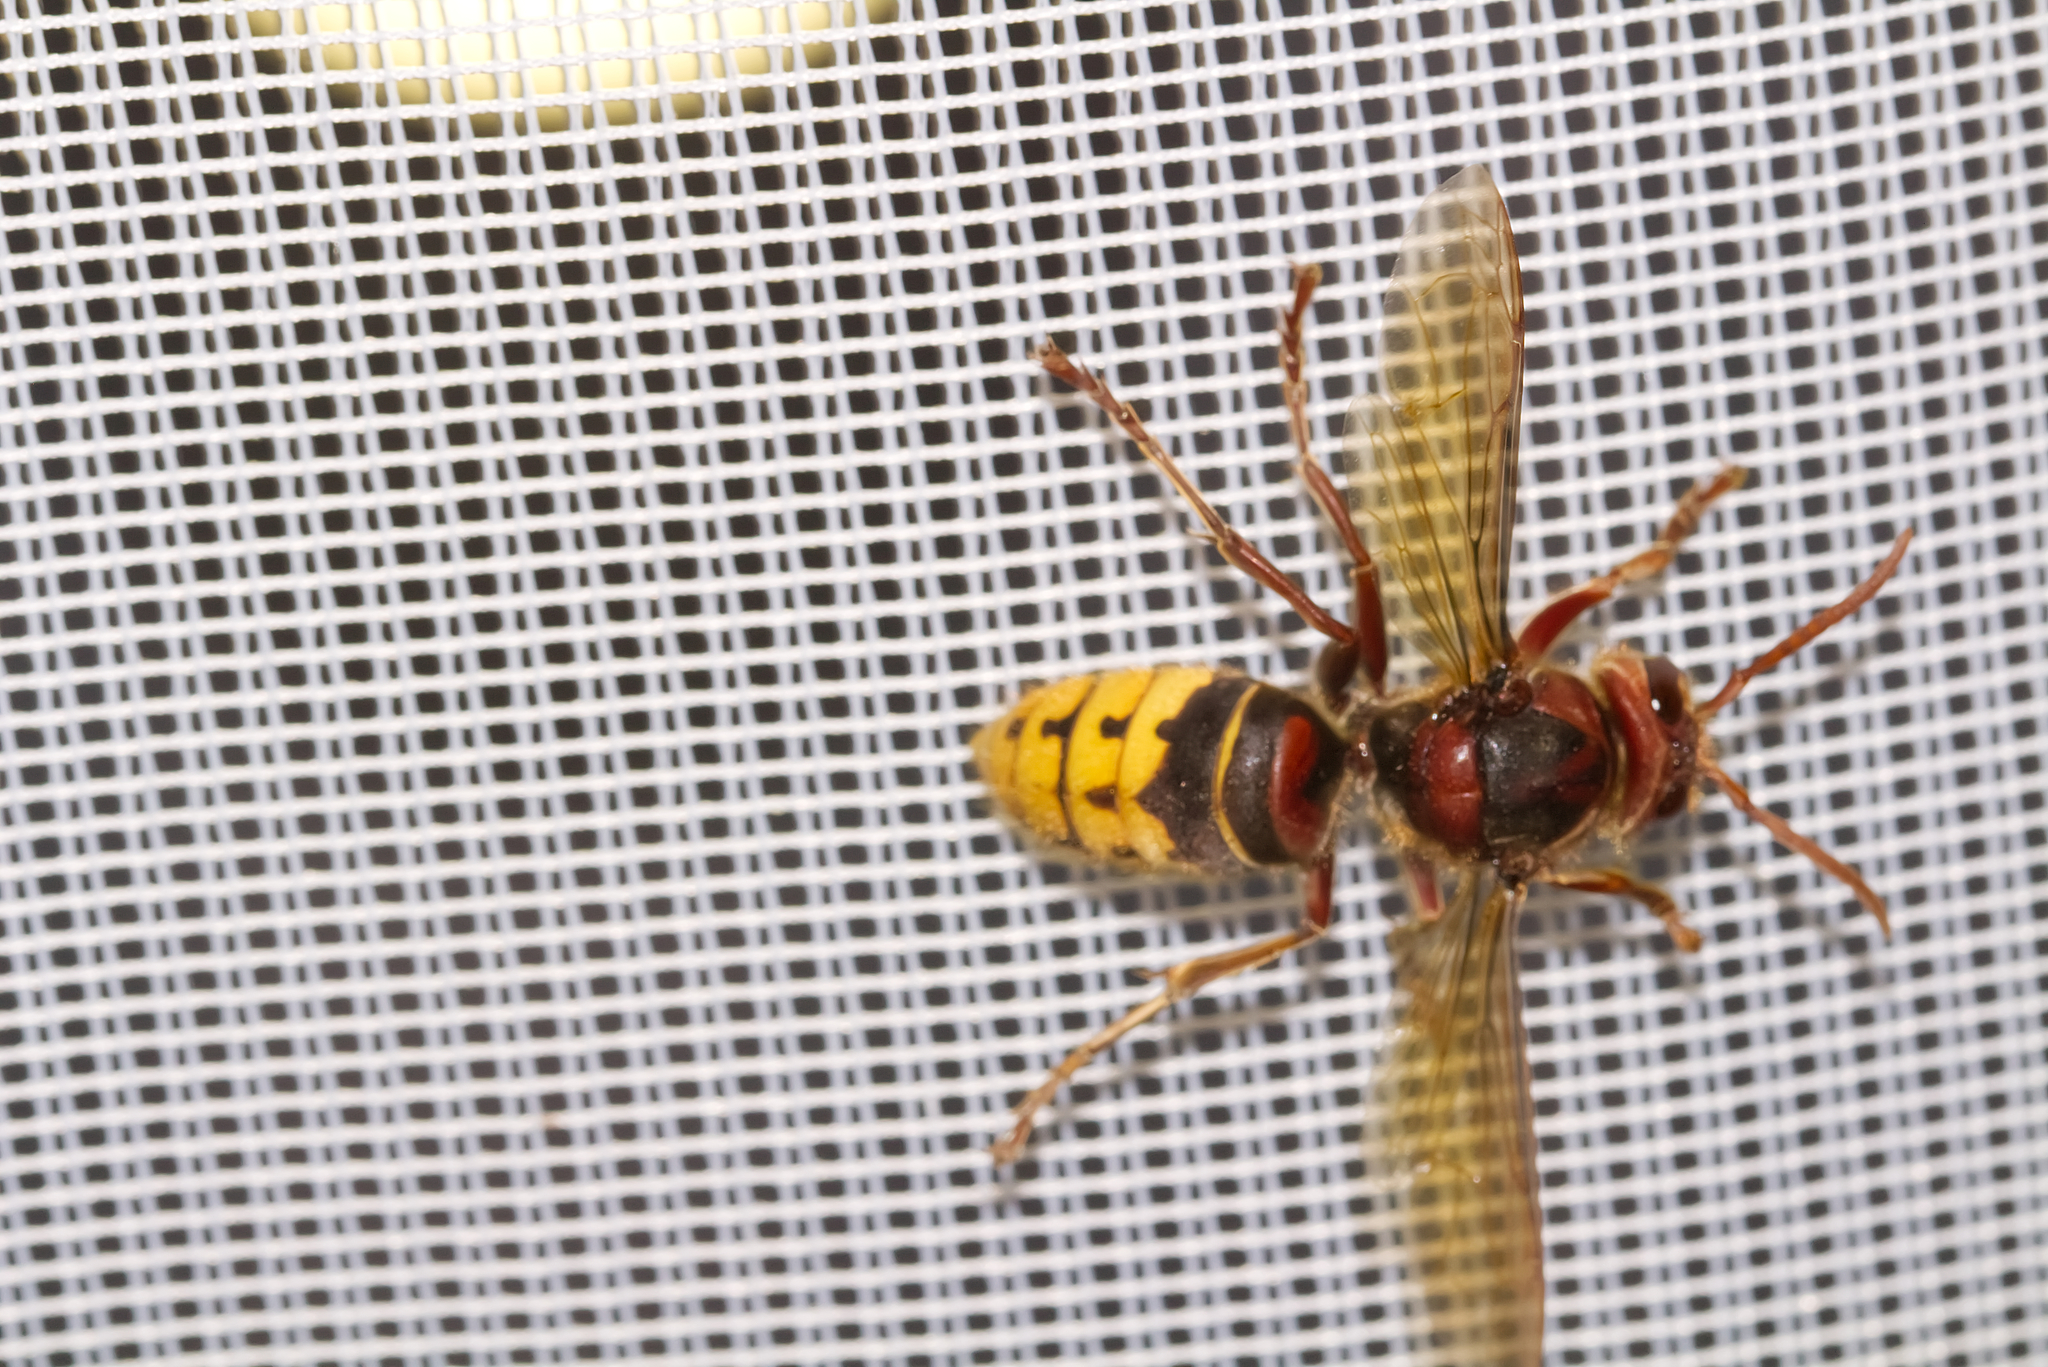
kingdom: Animalia
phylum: Arthropoda
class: Insecta
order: Hymenoptera
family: Vespidae
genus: Vespa
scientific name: Vespa crabro
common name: Hornet
